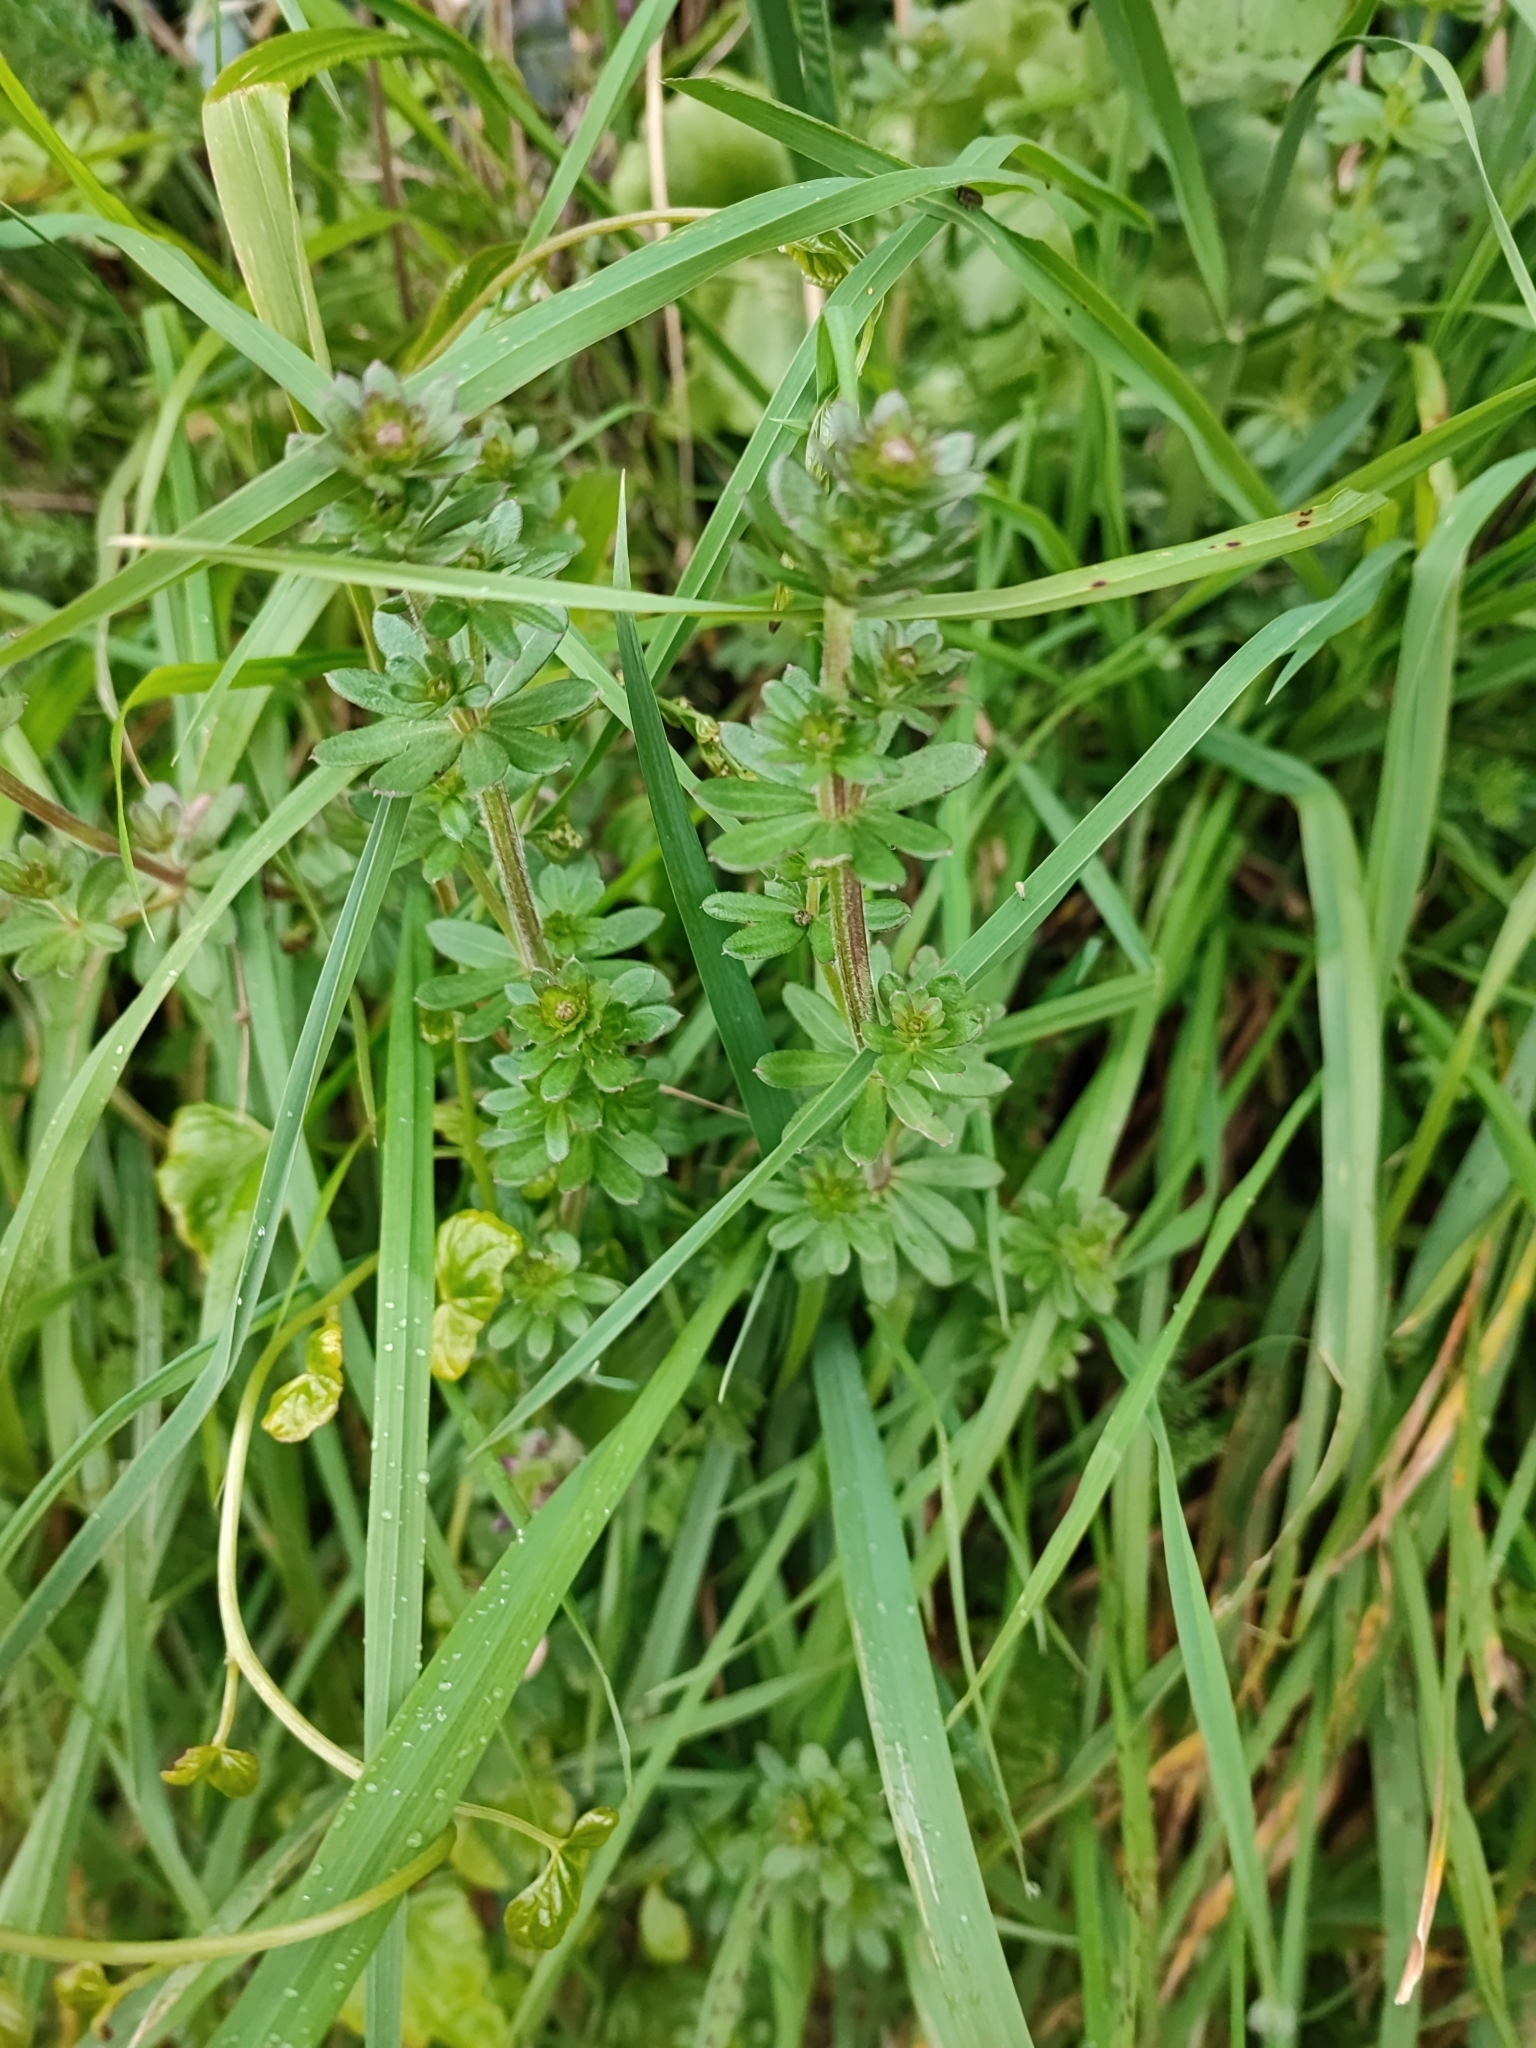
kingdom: Plantae
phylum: Tracheophyta
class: Magnoliopsida
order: Gentianales
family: Rubiaceae
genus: Galium
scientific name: Galium mollugo
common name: Hedge bedstraw
